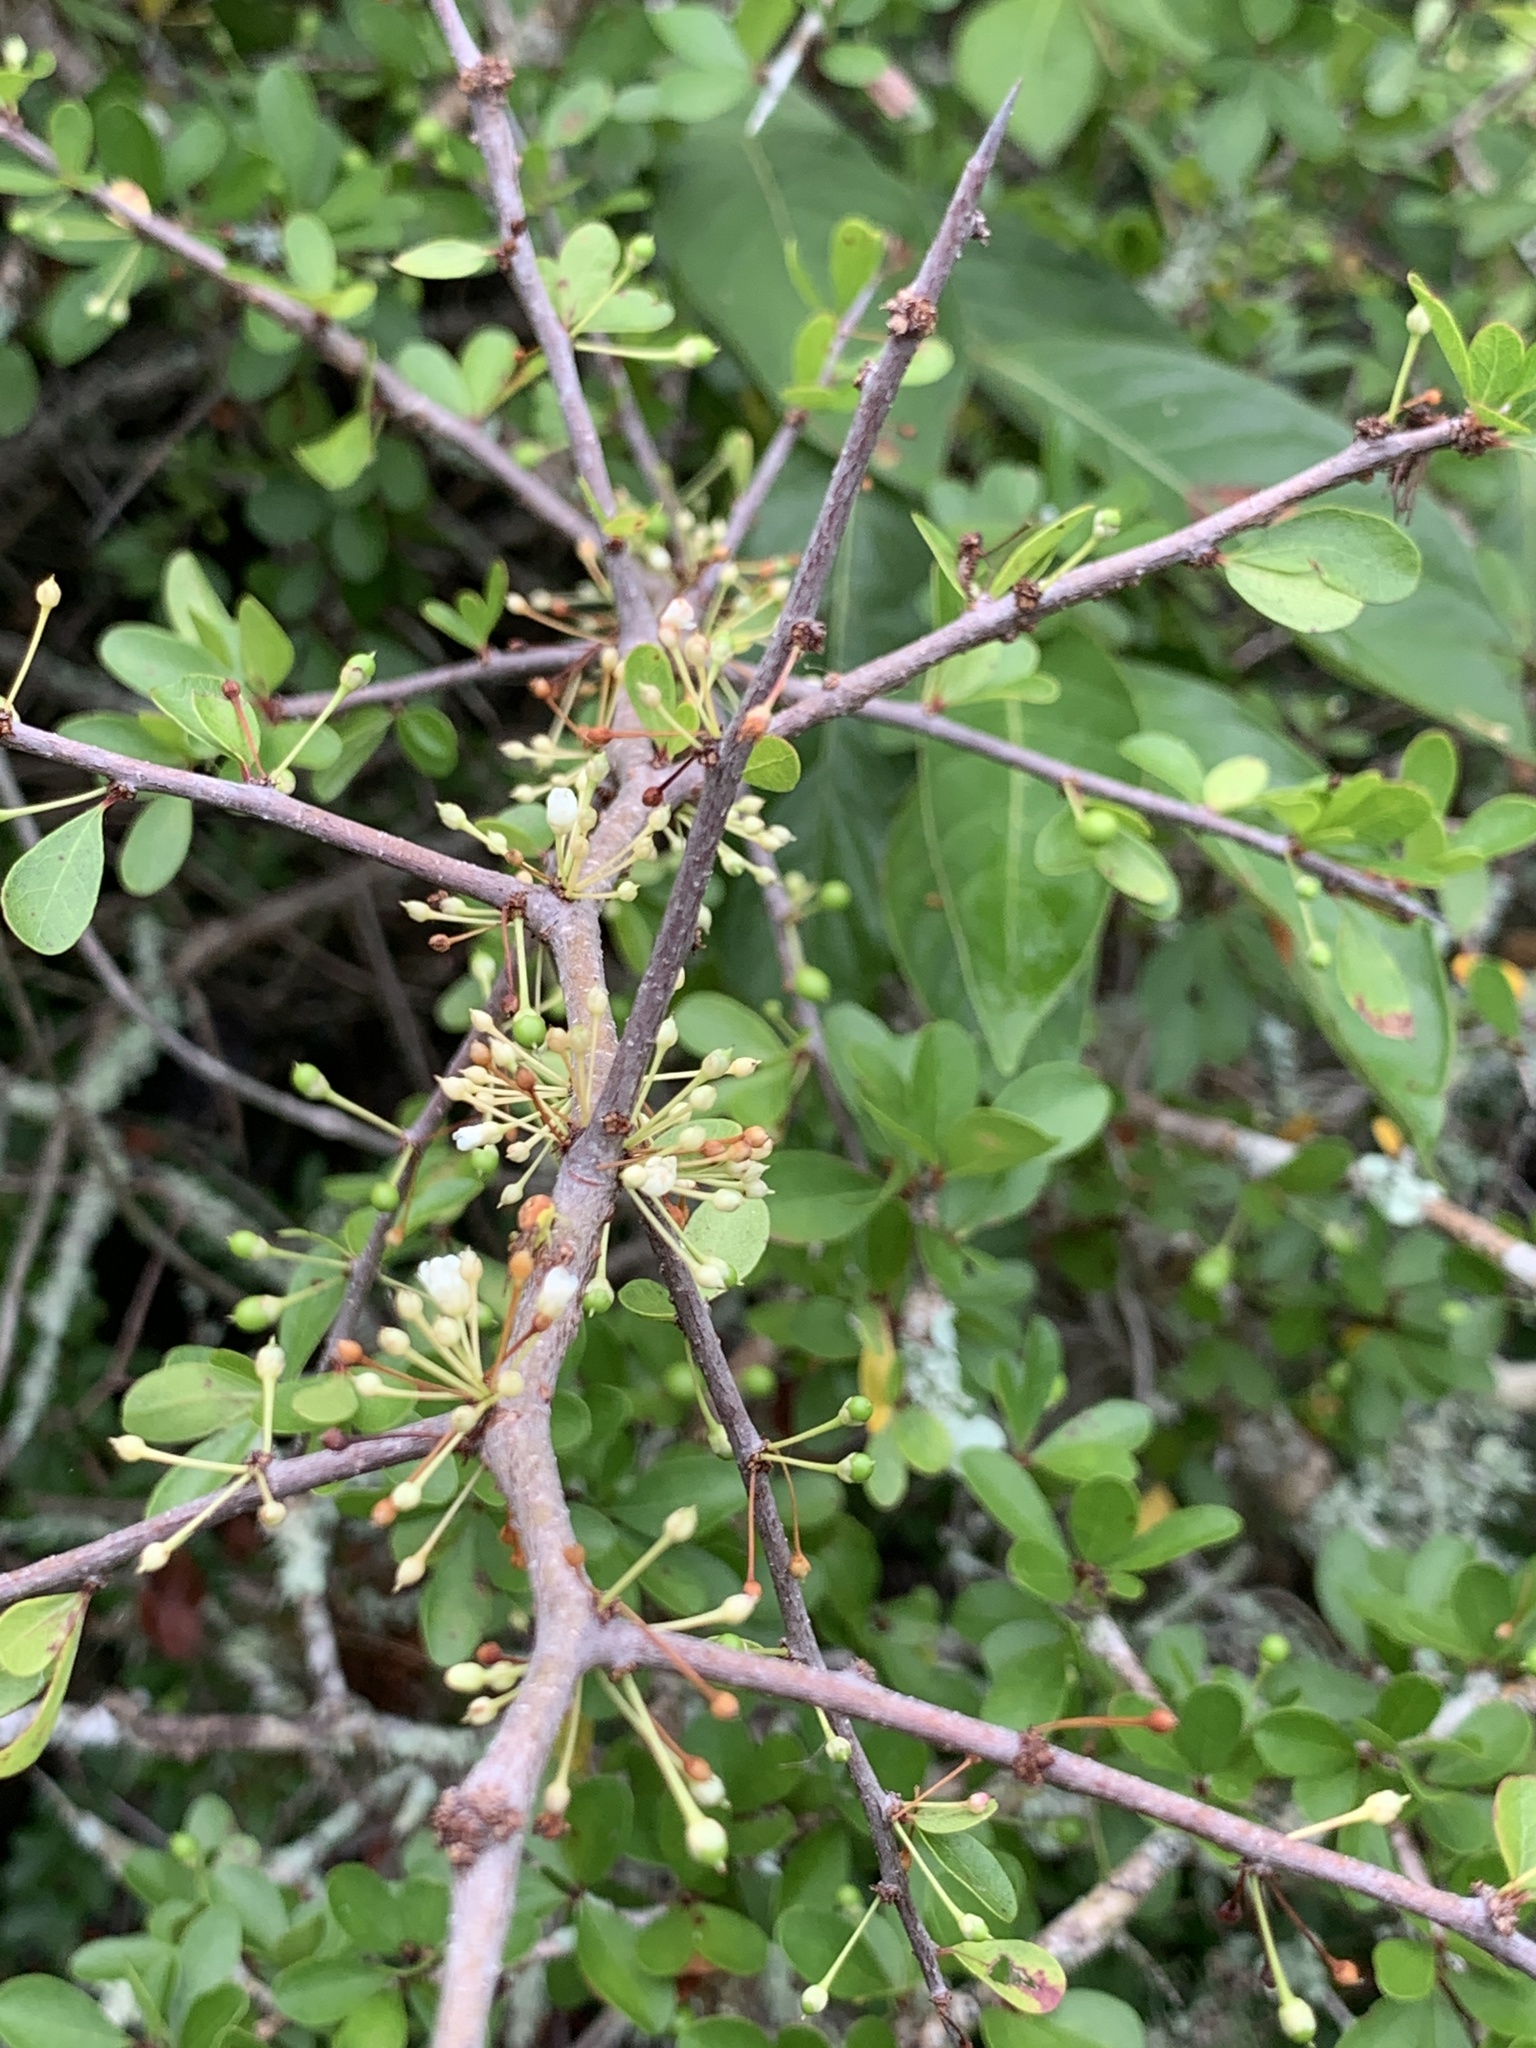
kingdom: Plantae
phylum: Tracheophyta
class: Magnoliopsida
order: Ericales
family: Sapotaceae
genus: Sideroxylon
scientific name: Sideroxylon celastrinum
